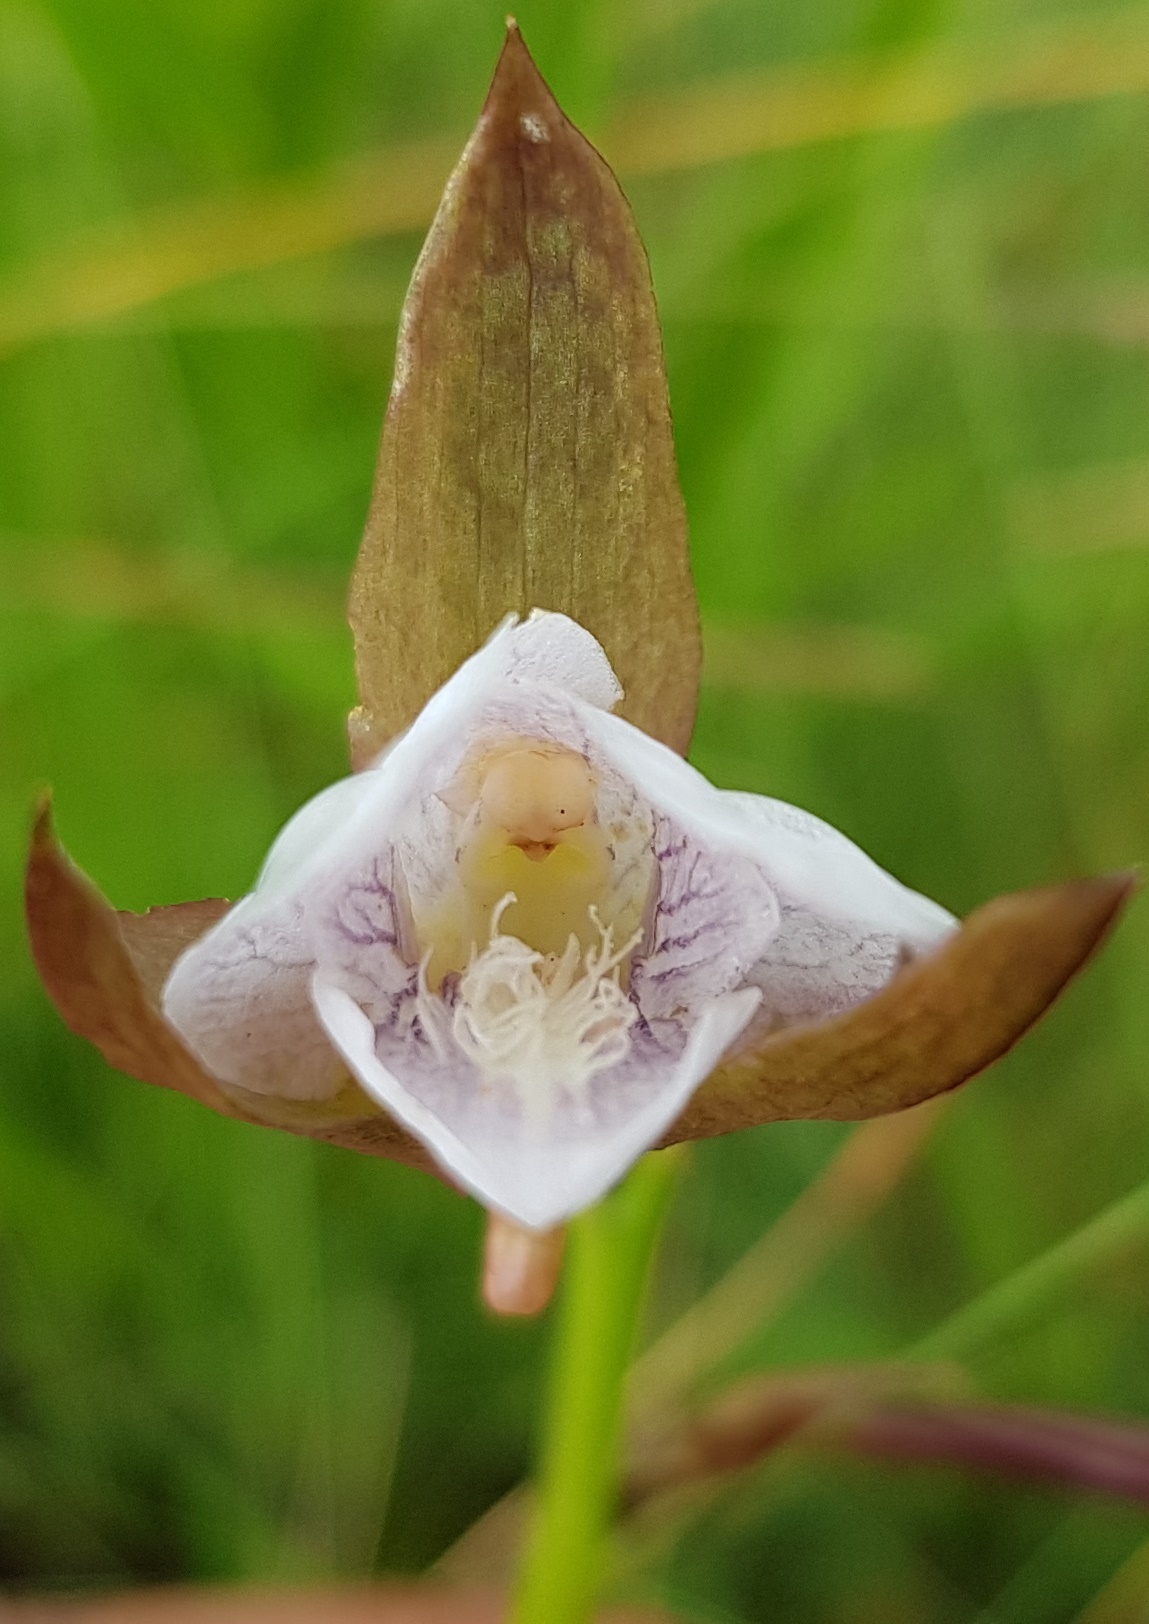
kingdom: Plantae
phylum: Tracheophyta
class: Liliopsida
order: Asparagales
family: Orchidaceae
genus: Eulophia
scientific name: Eulophia ovalis
